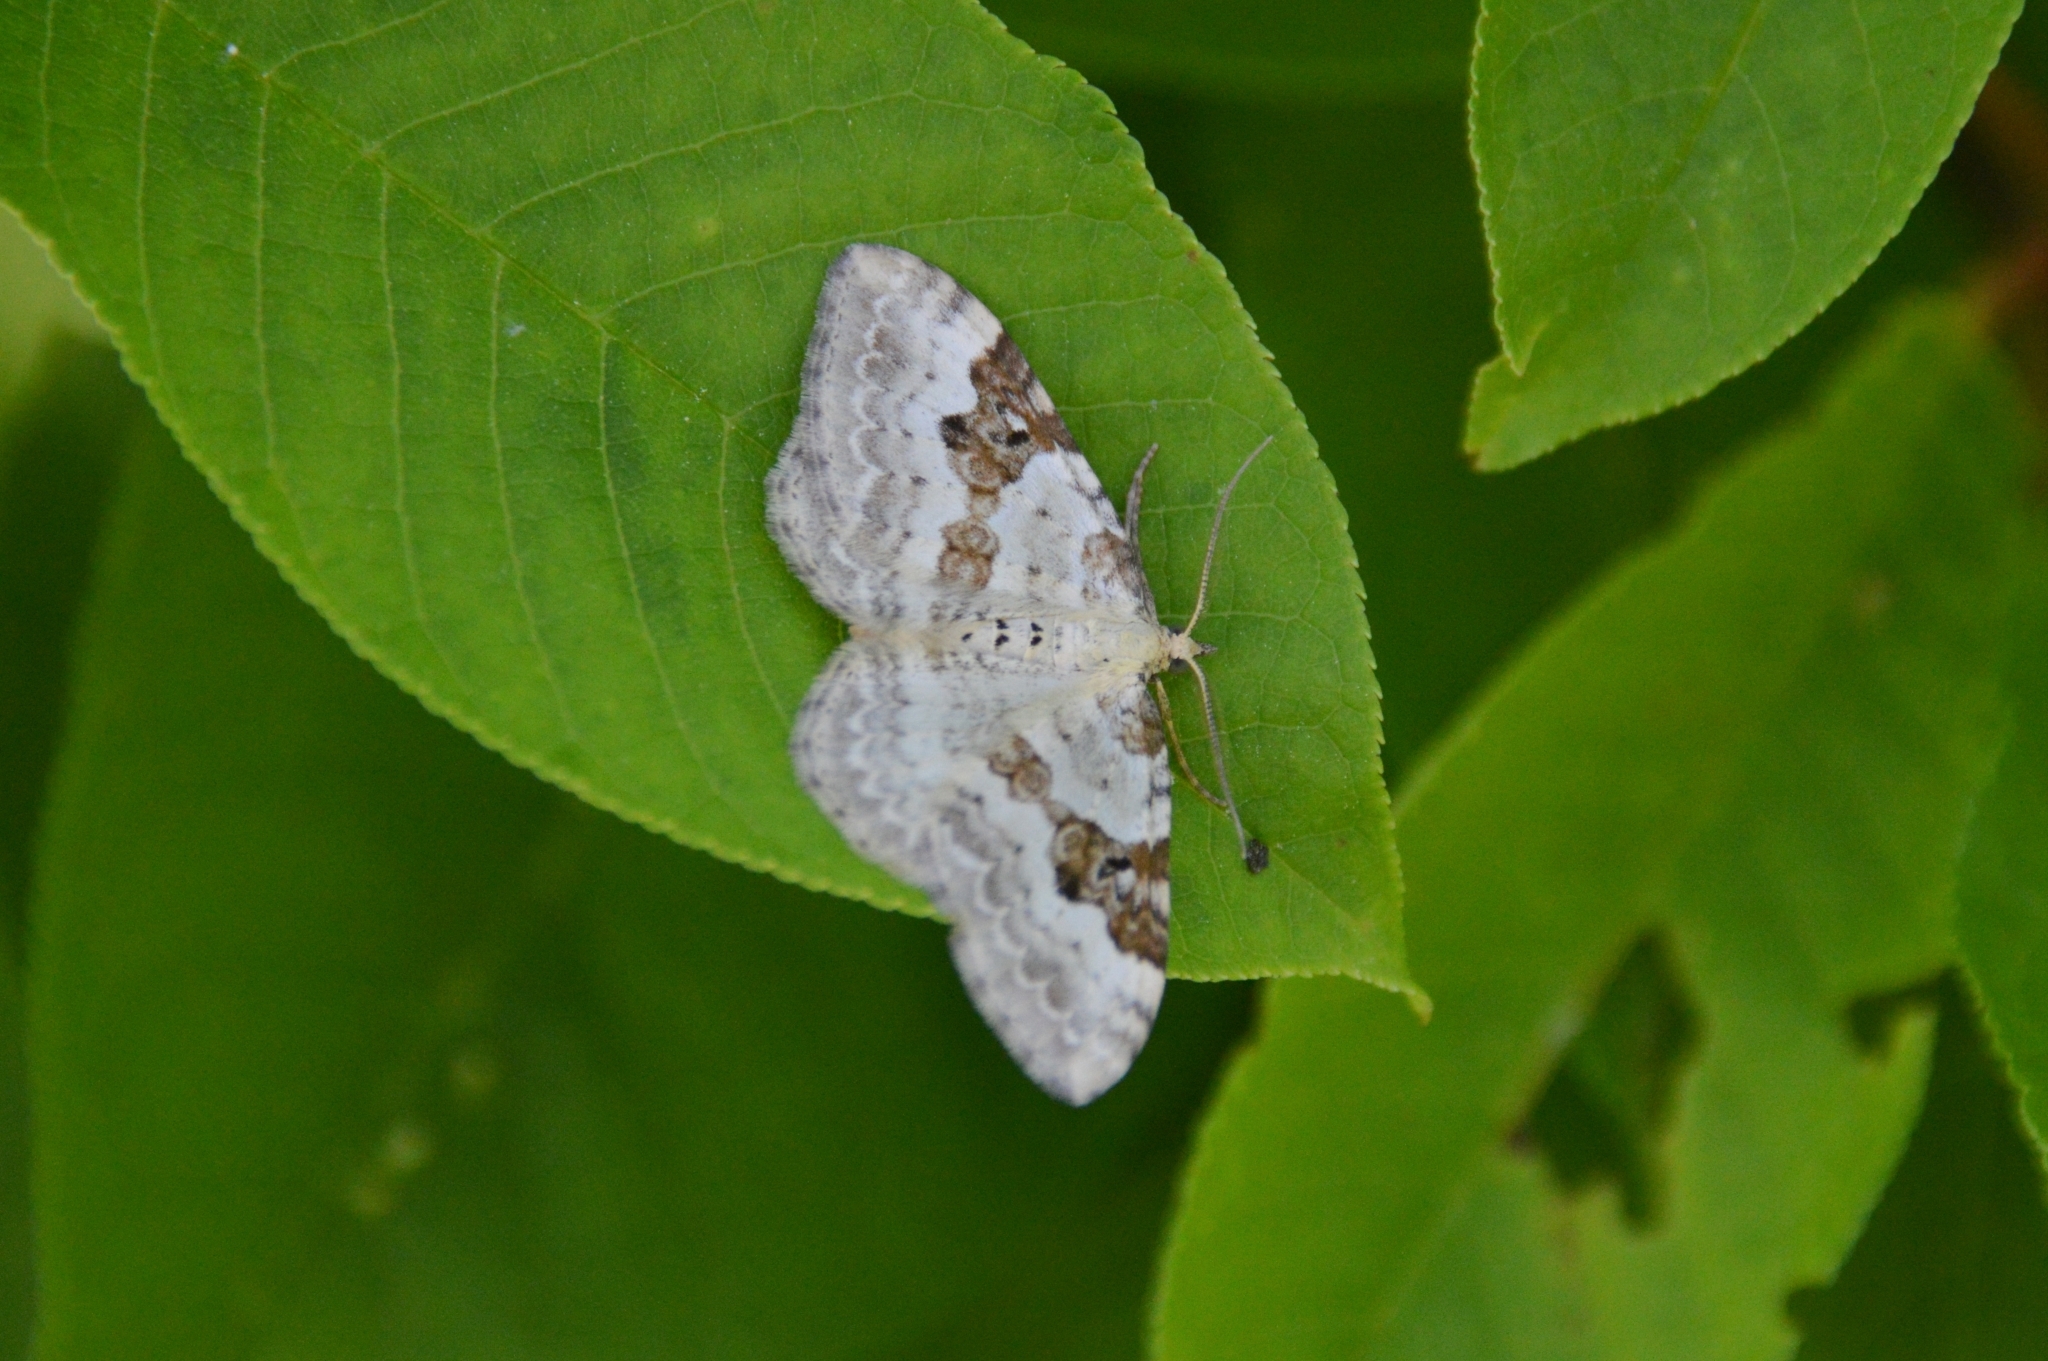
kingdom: Animalia
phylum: Arthropoda
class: Insecta
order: Lepidoptera
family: Geometridae
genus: Xanthorhoe
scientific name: Xanthorhoe montanata
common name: Silver-ground carpet
